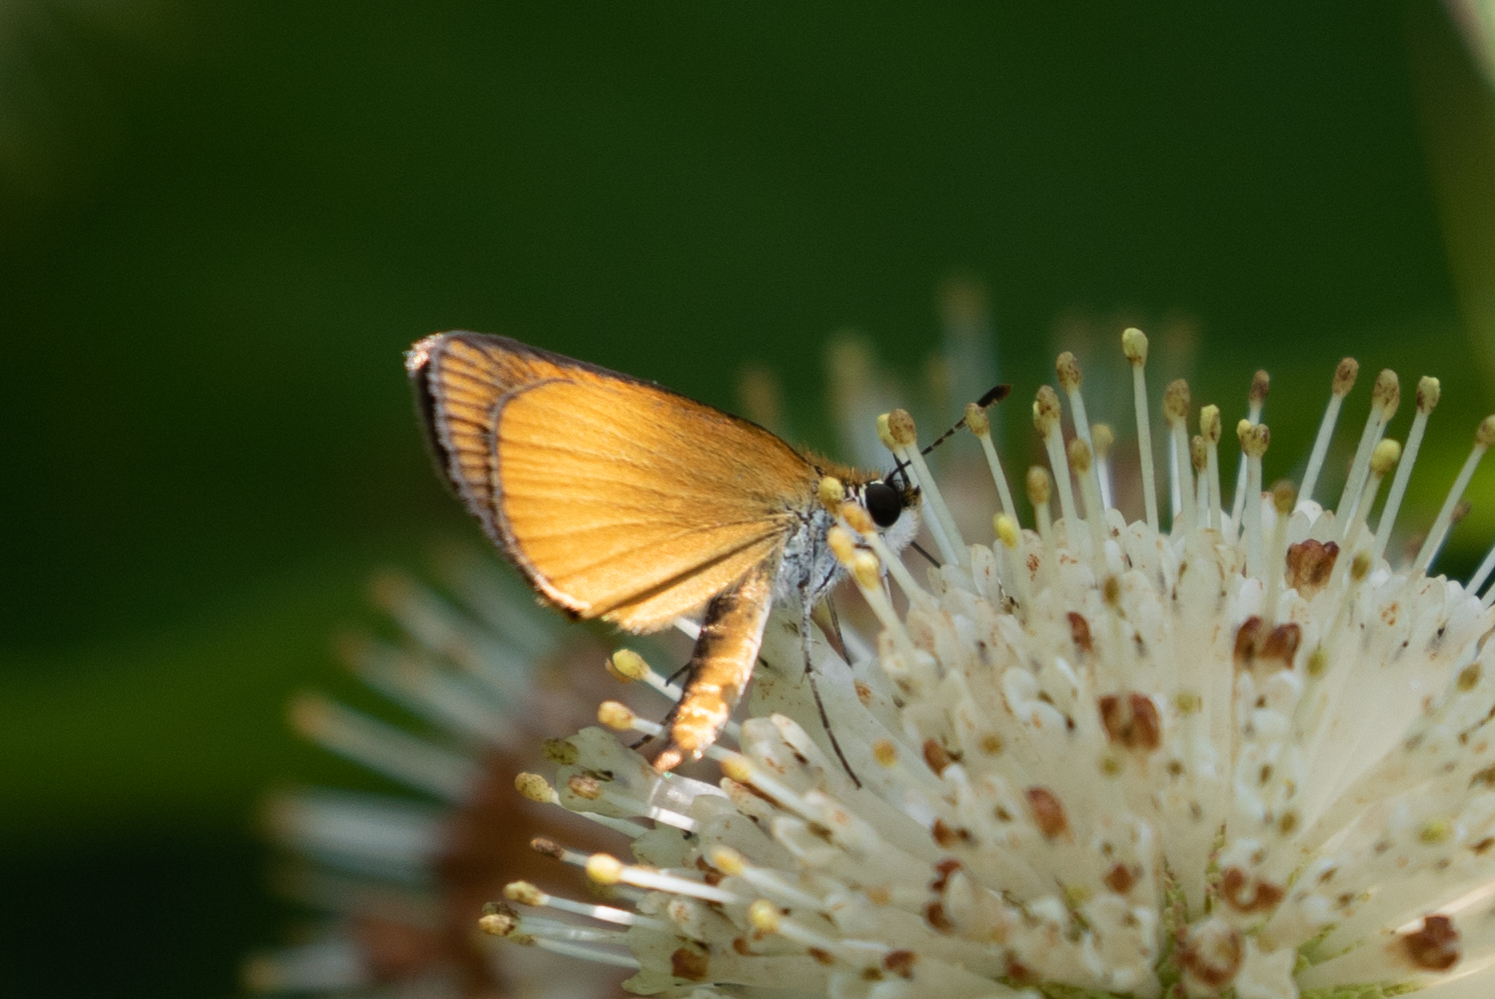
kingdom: Animalia
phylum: Arthropoda
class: Insecta
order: Lepidoptera
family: Hesperiidae
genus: Ancyloxypha
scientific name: Ancyloxypha numitor
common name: Least skipper
